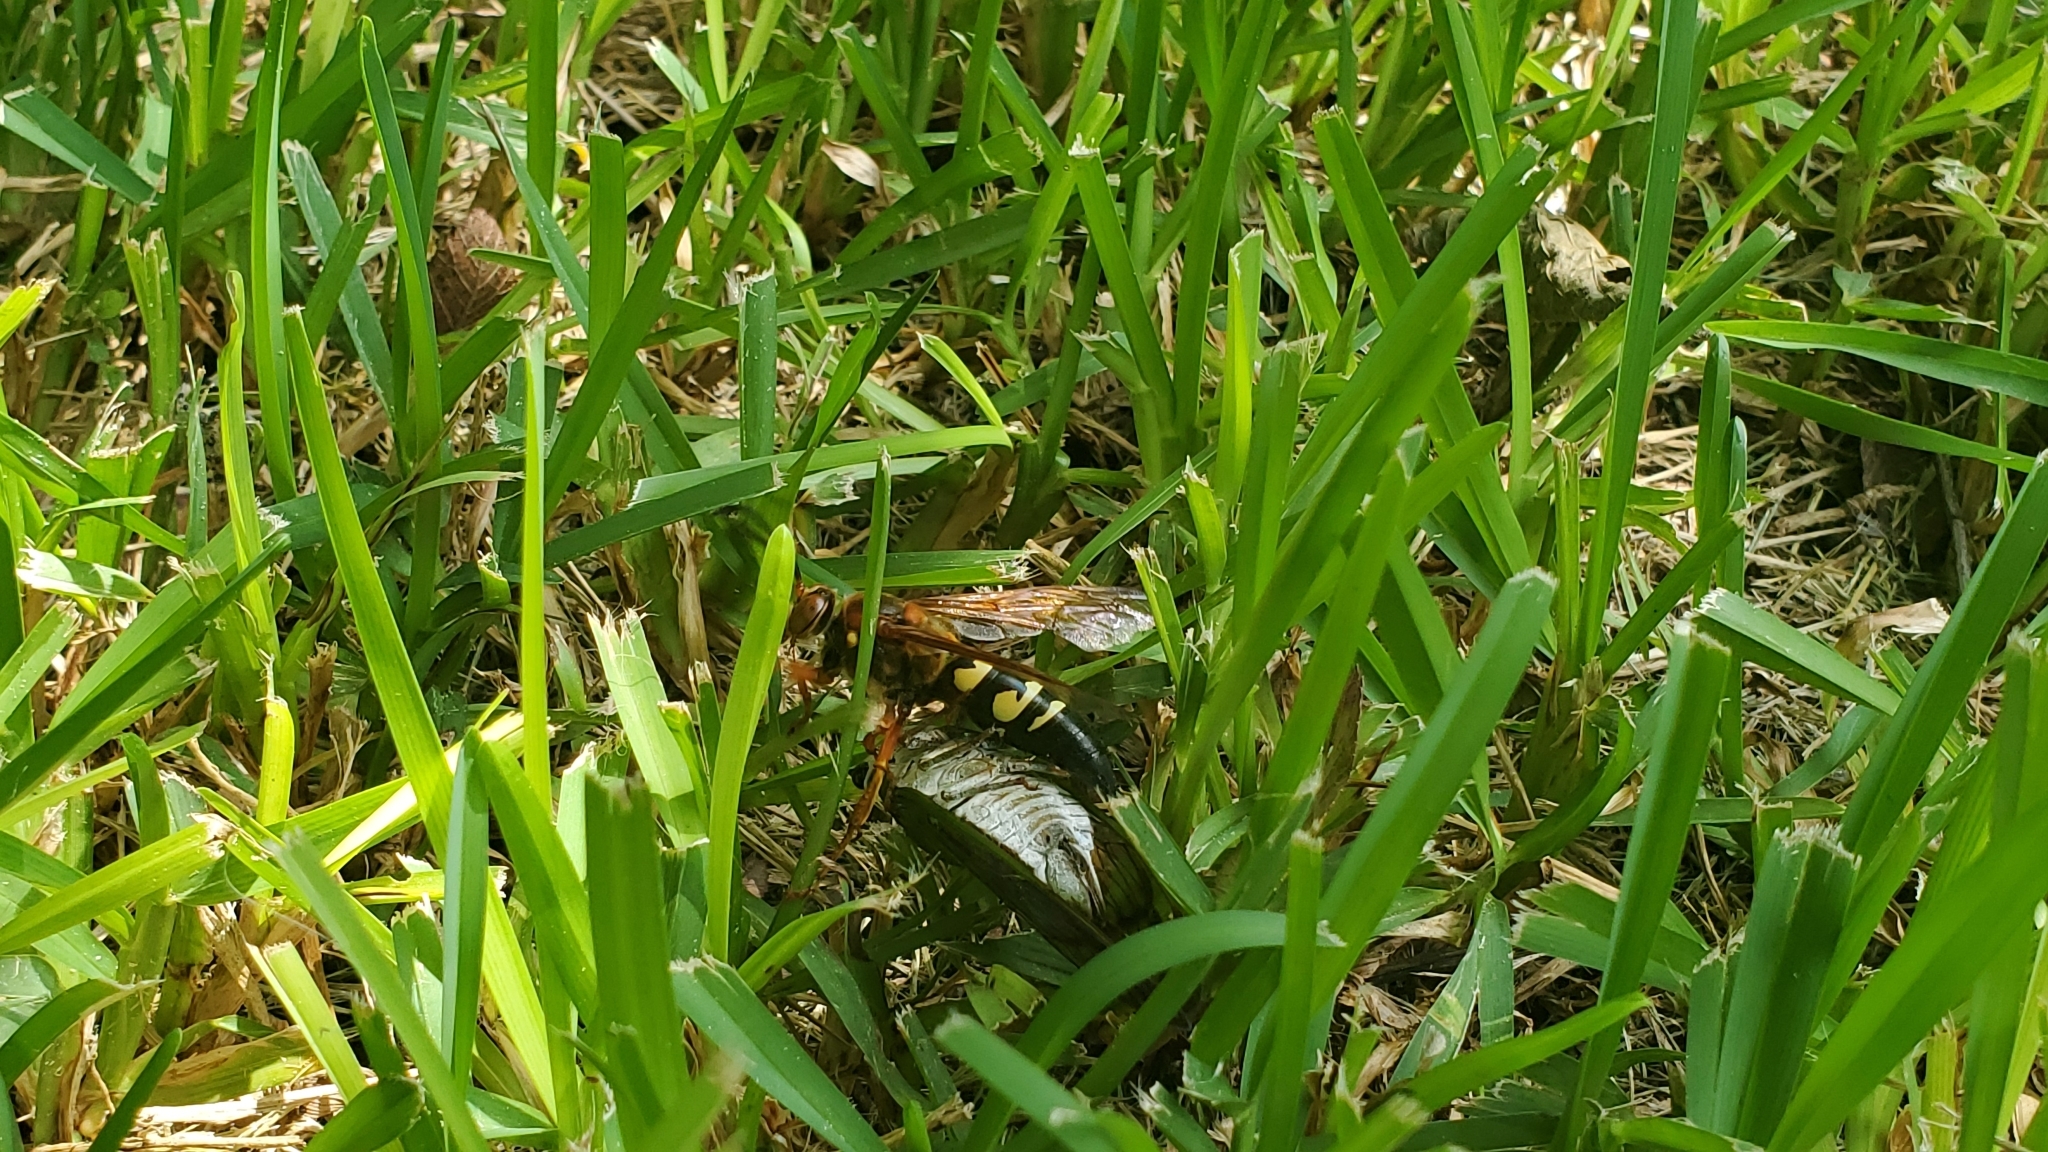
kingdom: Animalia
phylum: Arthropoda
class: Insecta
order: Hymenoptera
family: Crabronidae
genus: Sphecius
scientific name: Sphecius speciosus
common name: Cicada killer
